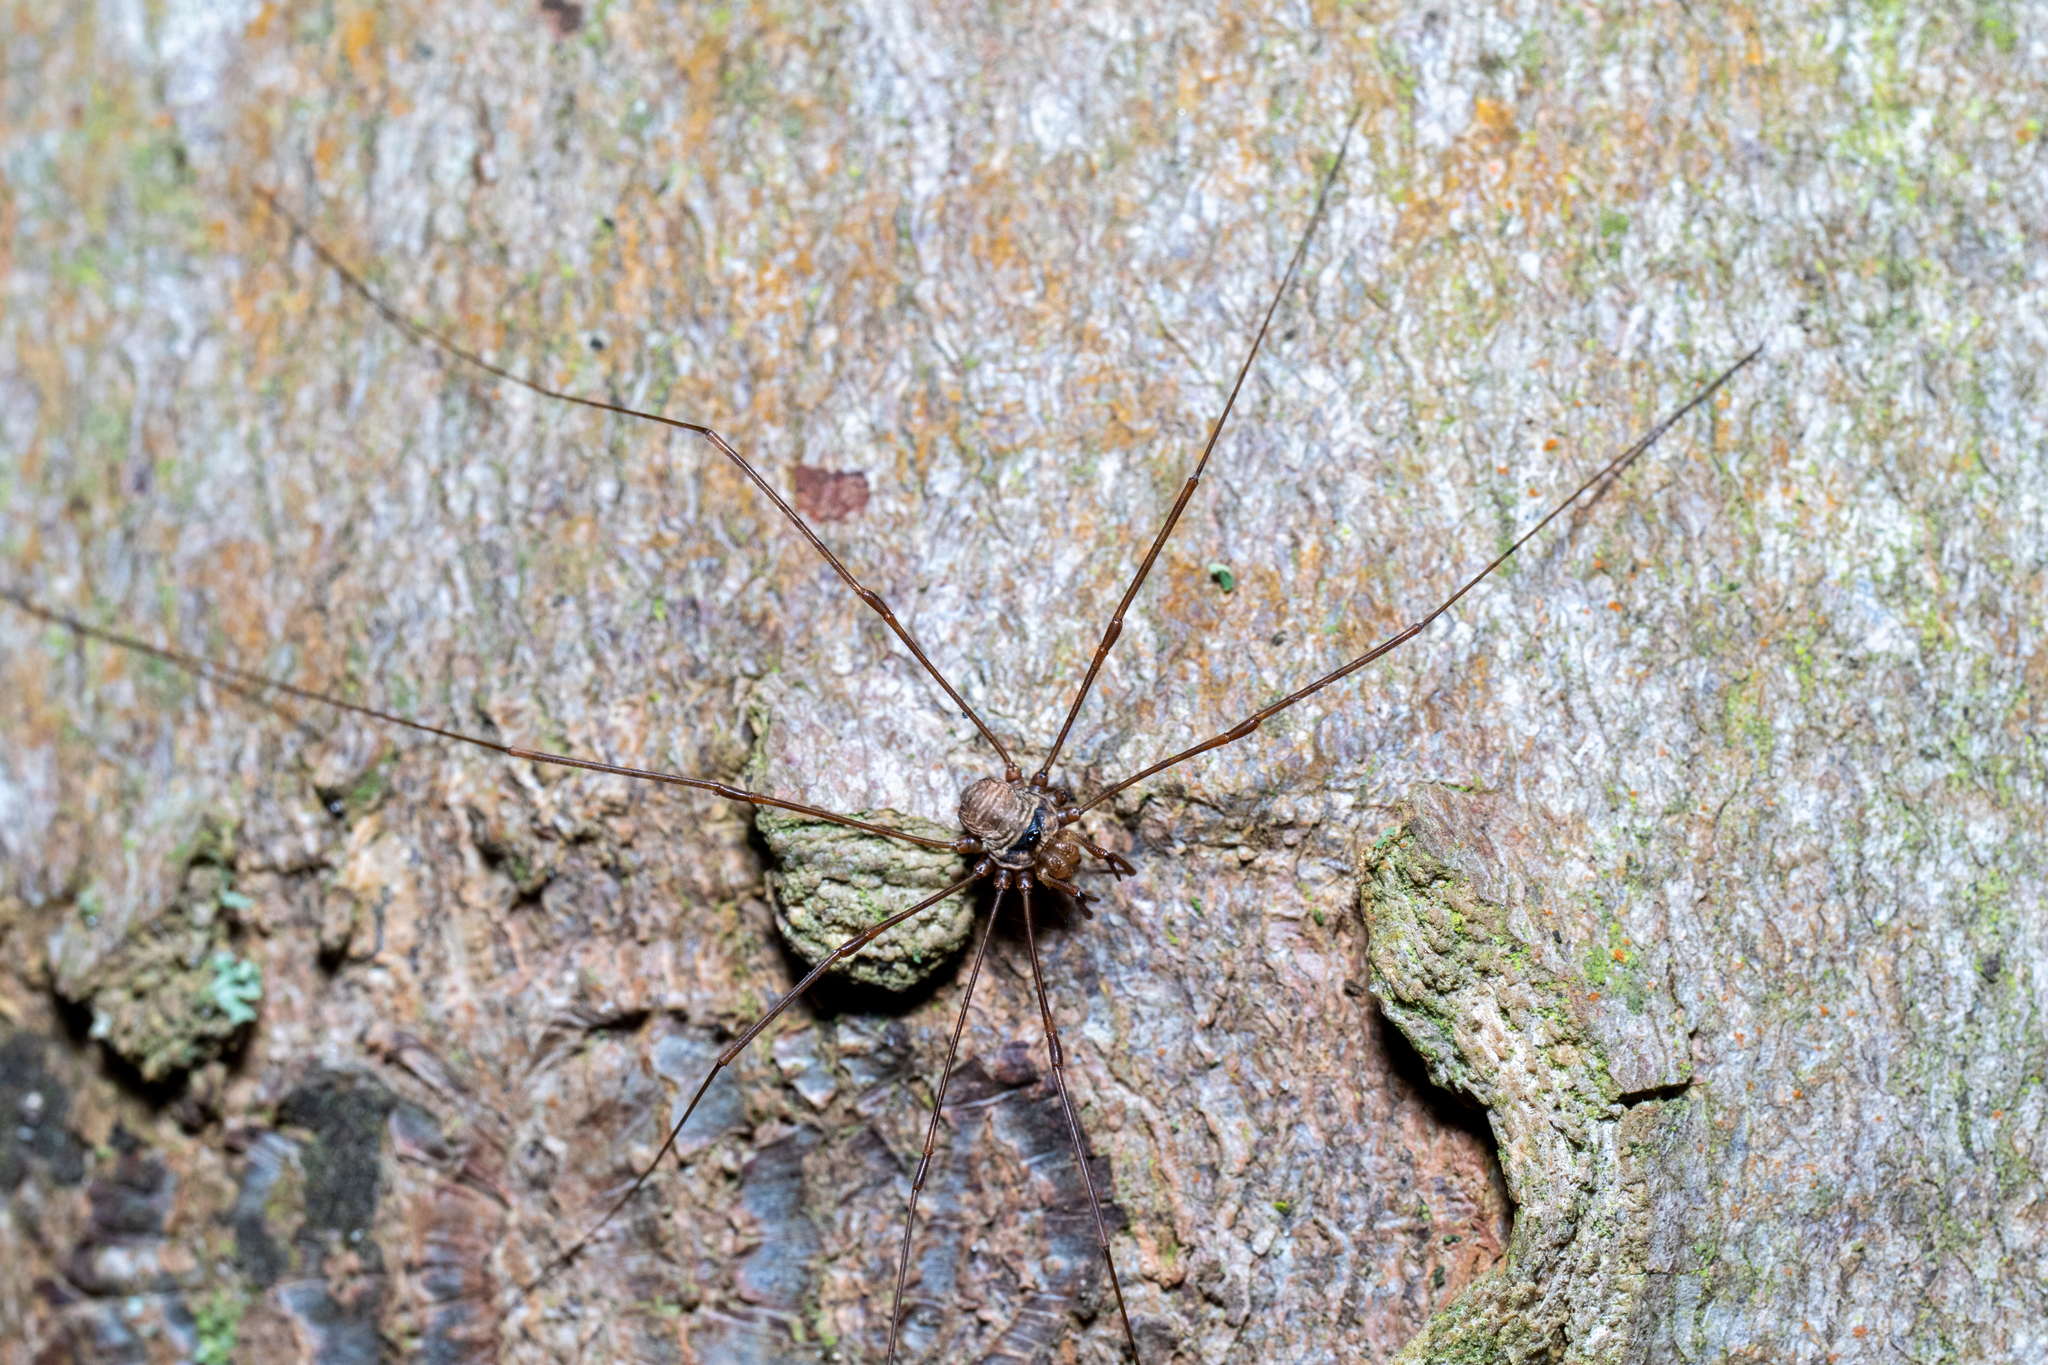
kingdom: Animalia
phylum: Arthropoda
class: Arachnida
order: Opiliones
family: Phalangiidae
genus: Dicranopalpus
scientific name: Dicranopalpus ramosus
